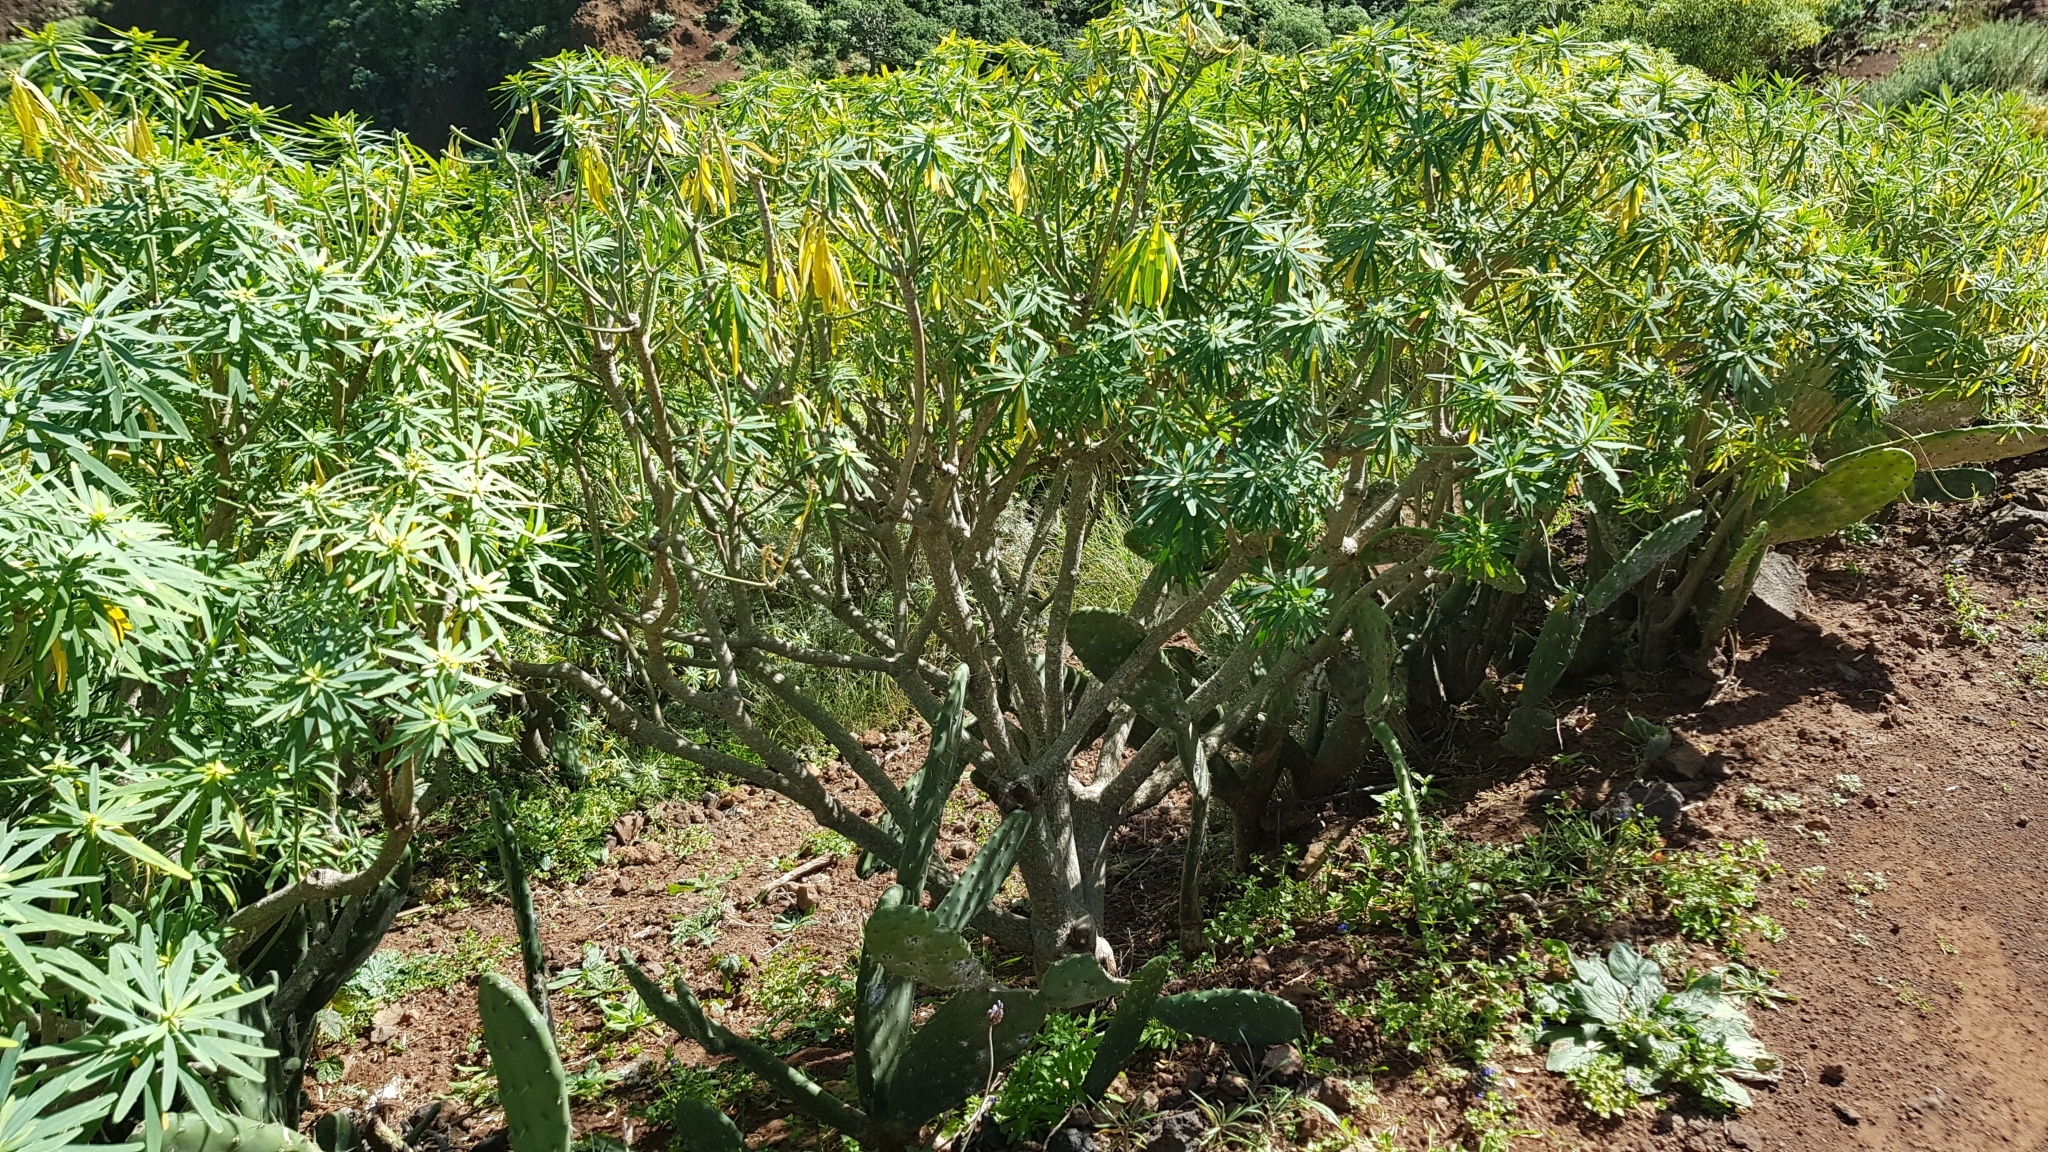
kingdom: Plantae
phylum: Tracheophyta
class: Magnoliopsida
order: Malpighiales
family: Euphorbiaceae
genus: Euphorbia
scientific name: Euphorbia lamarckii
